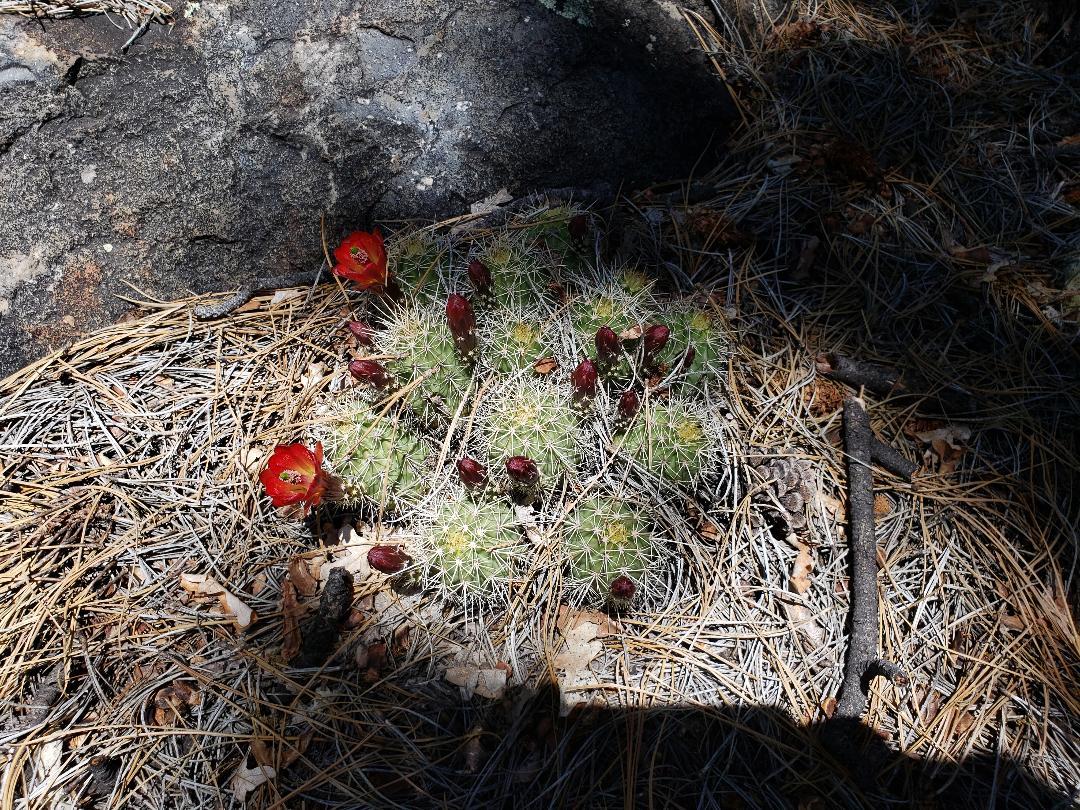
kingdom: Plantae
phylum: Tracheophyta
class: Magnoliopsida
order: Caryophyllales
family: Cactaceae
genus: Echinocereus
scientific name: Echinocereus bakeri
